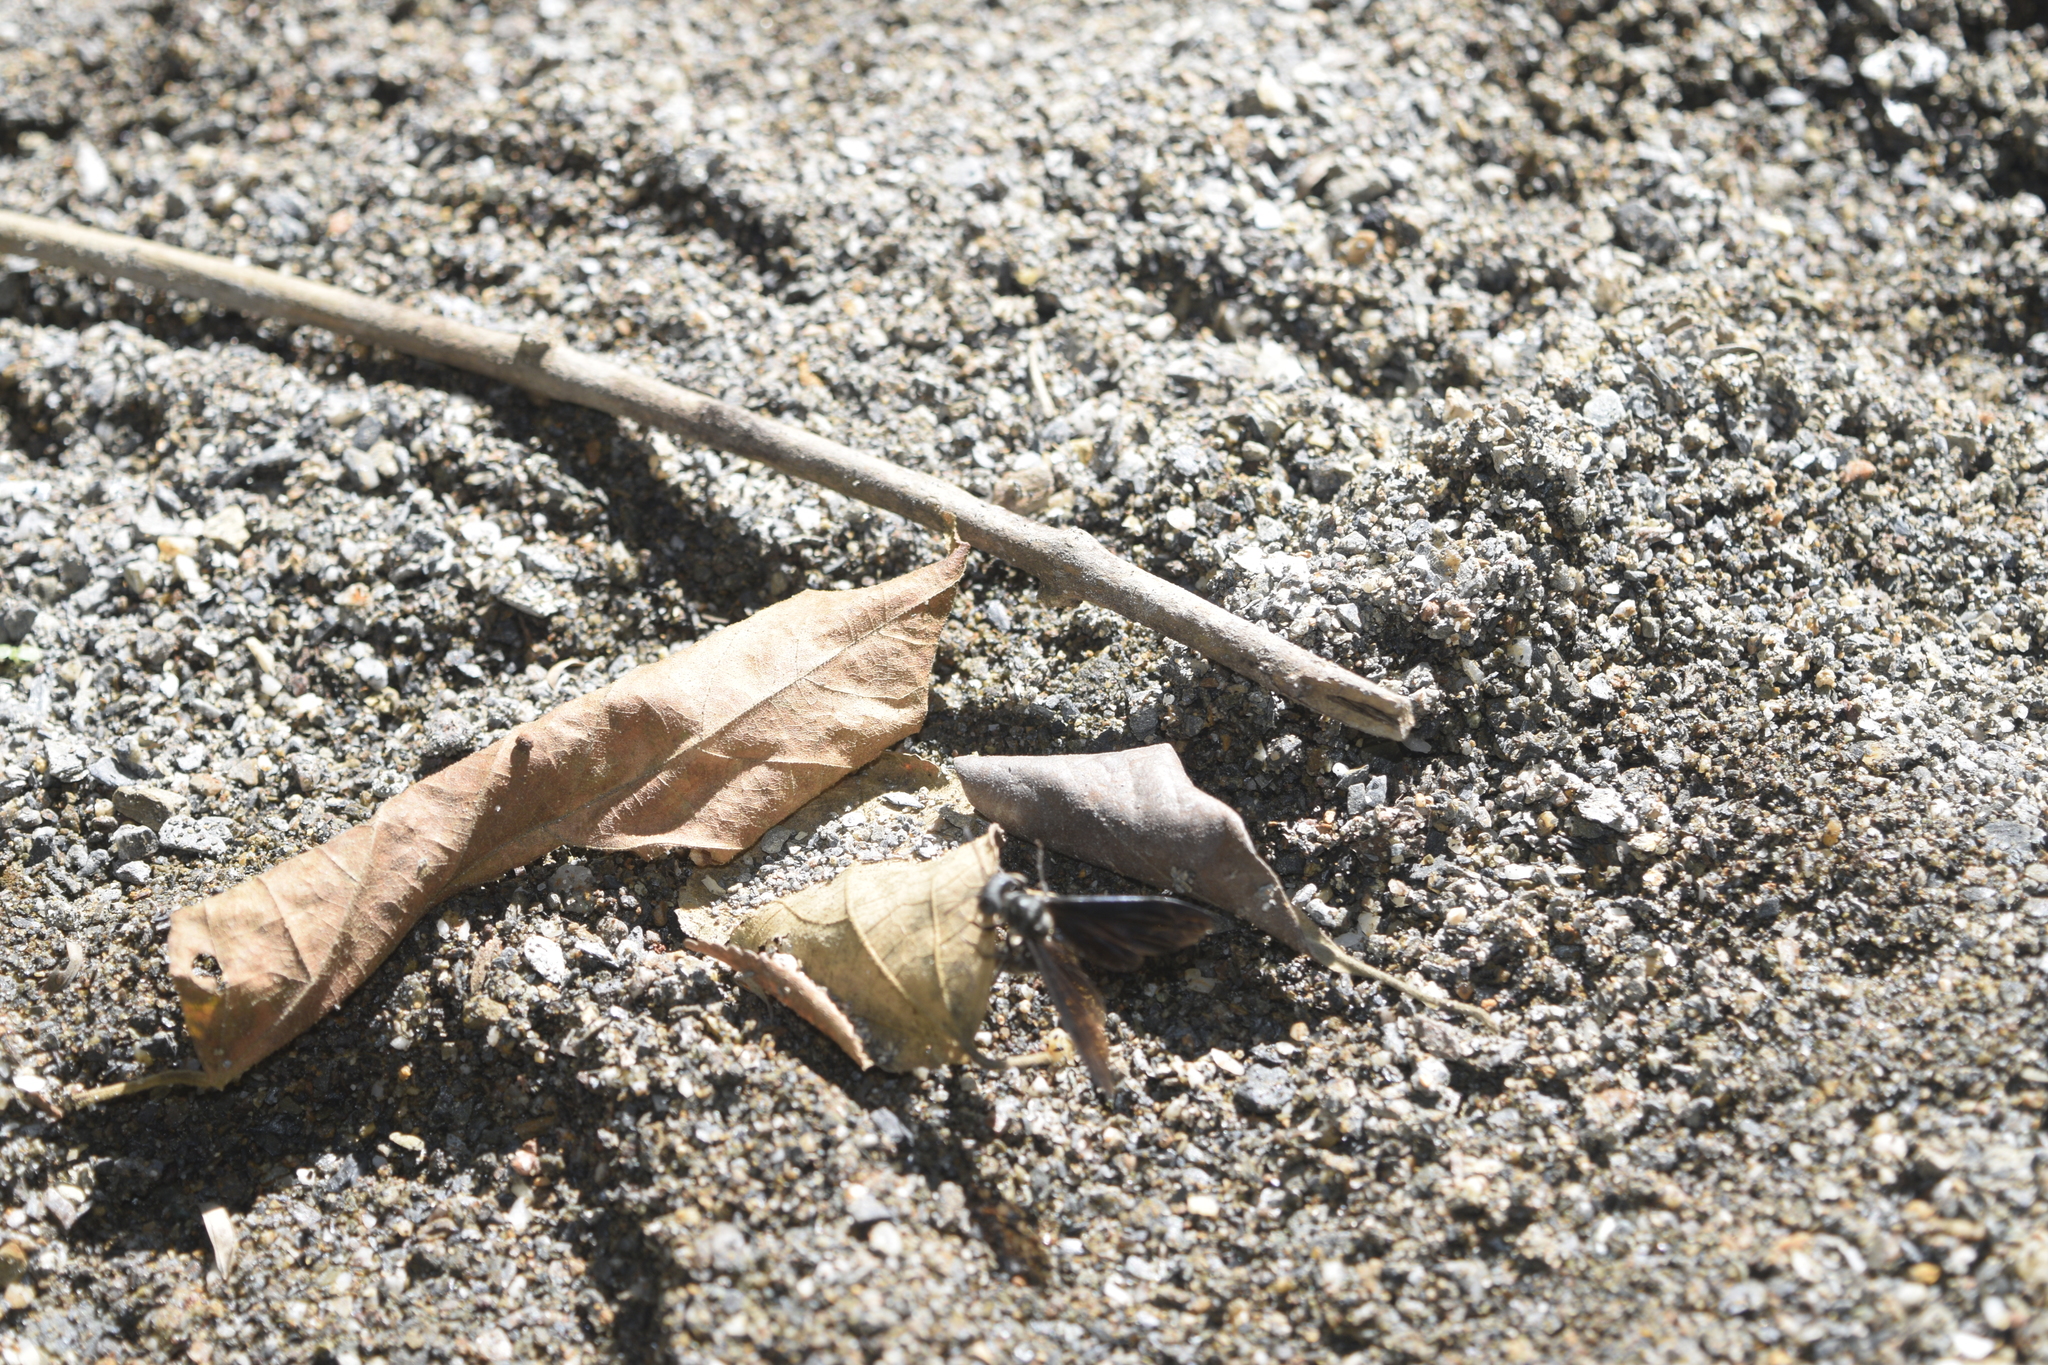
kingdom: Animalia
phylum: Arthropoda
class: Insecta
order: Hymenoptera
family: Vespidae
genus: Synoeca
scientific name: Synoeca septentrionalis
